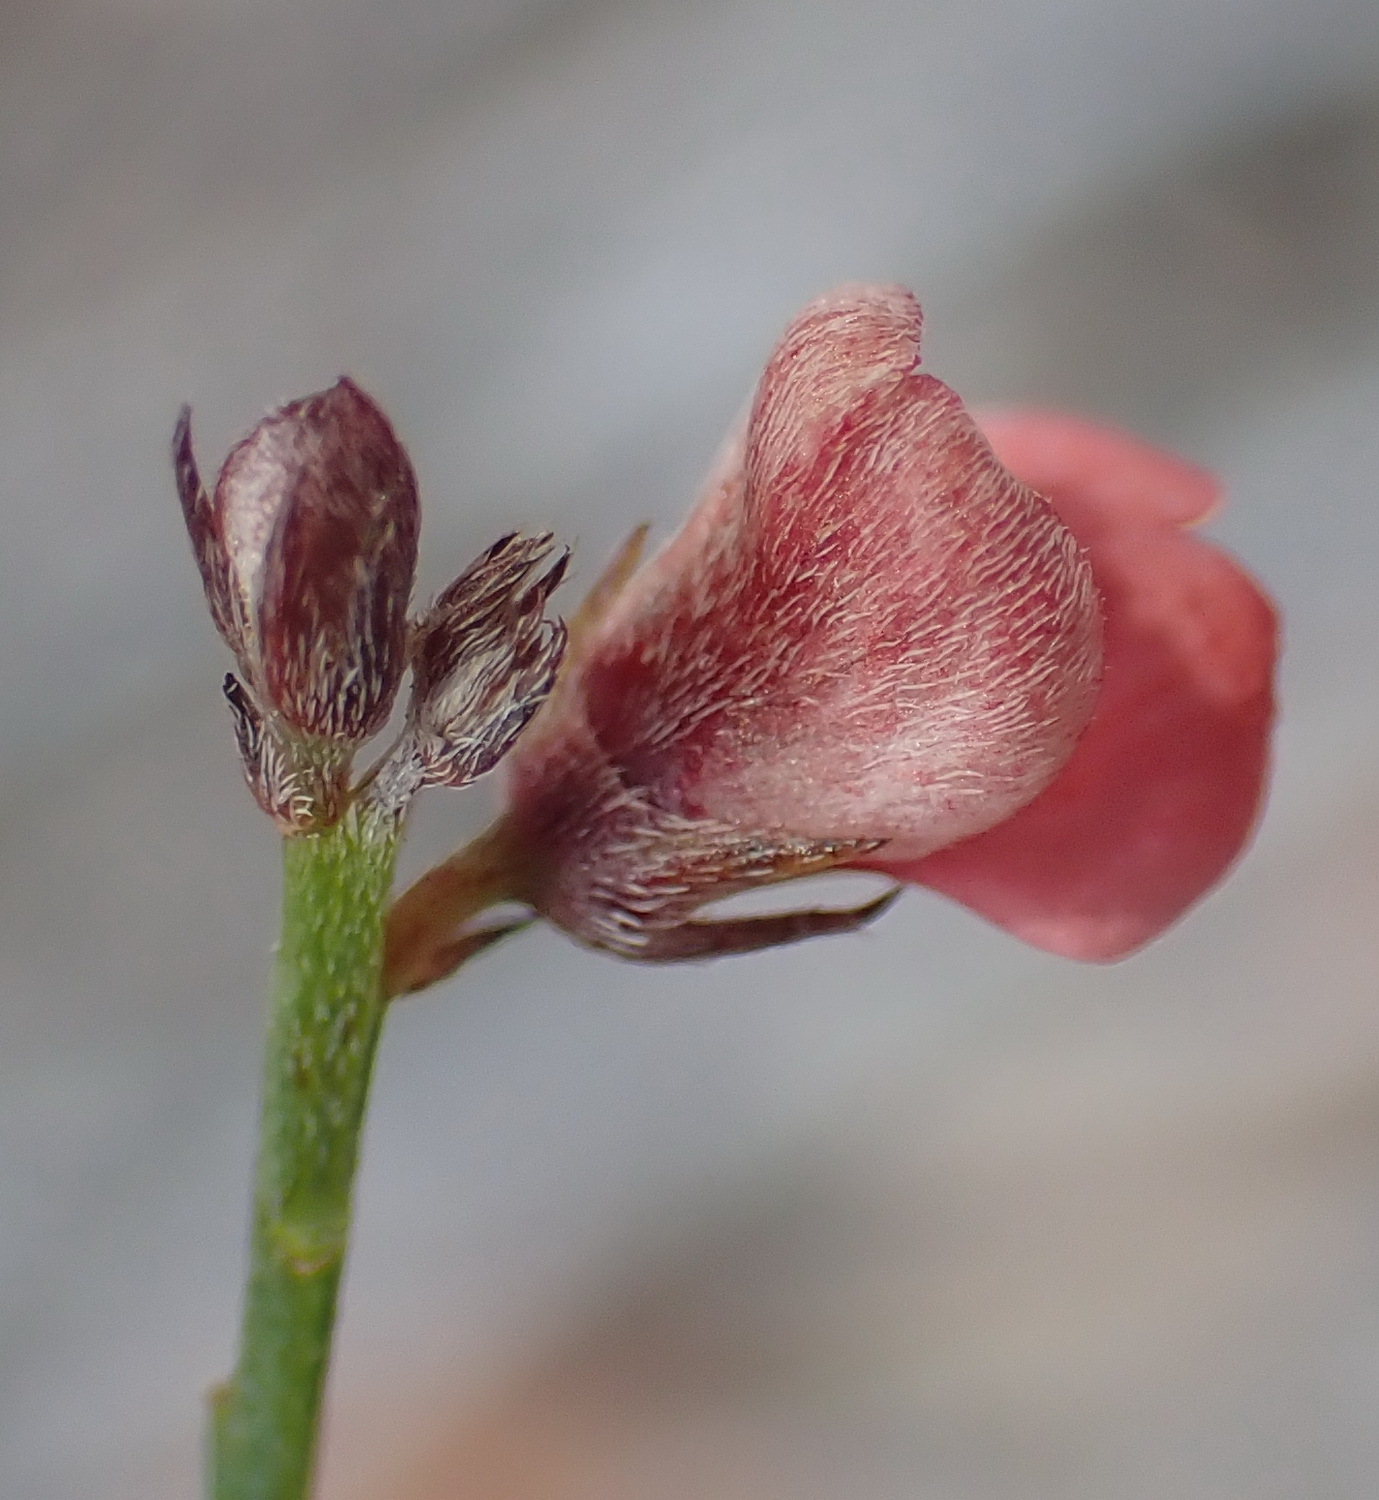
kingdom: Plantae
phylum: Tracheophyta
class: Magnoliopsida
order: Fabales
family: Fabaceae
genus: Indigofera
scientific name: Indigofera leptocarpa
